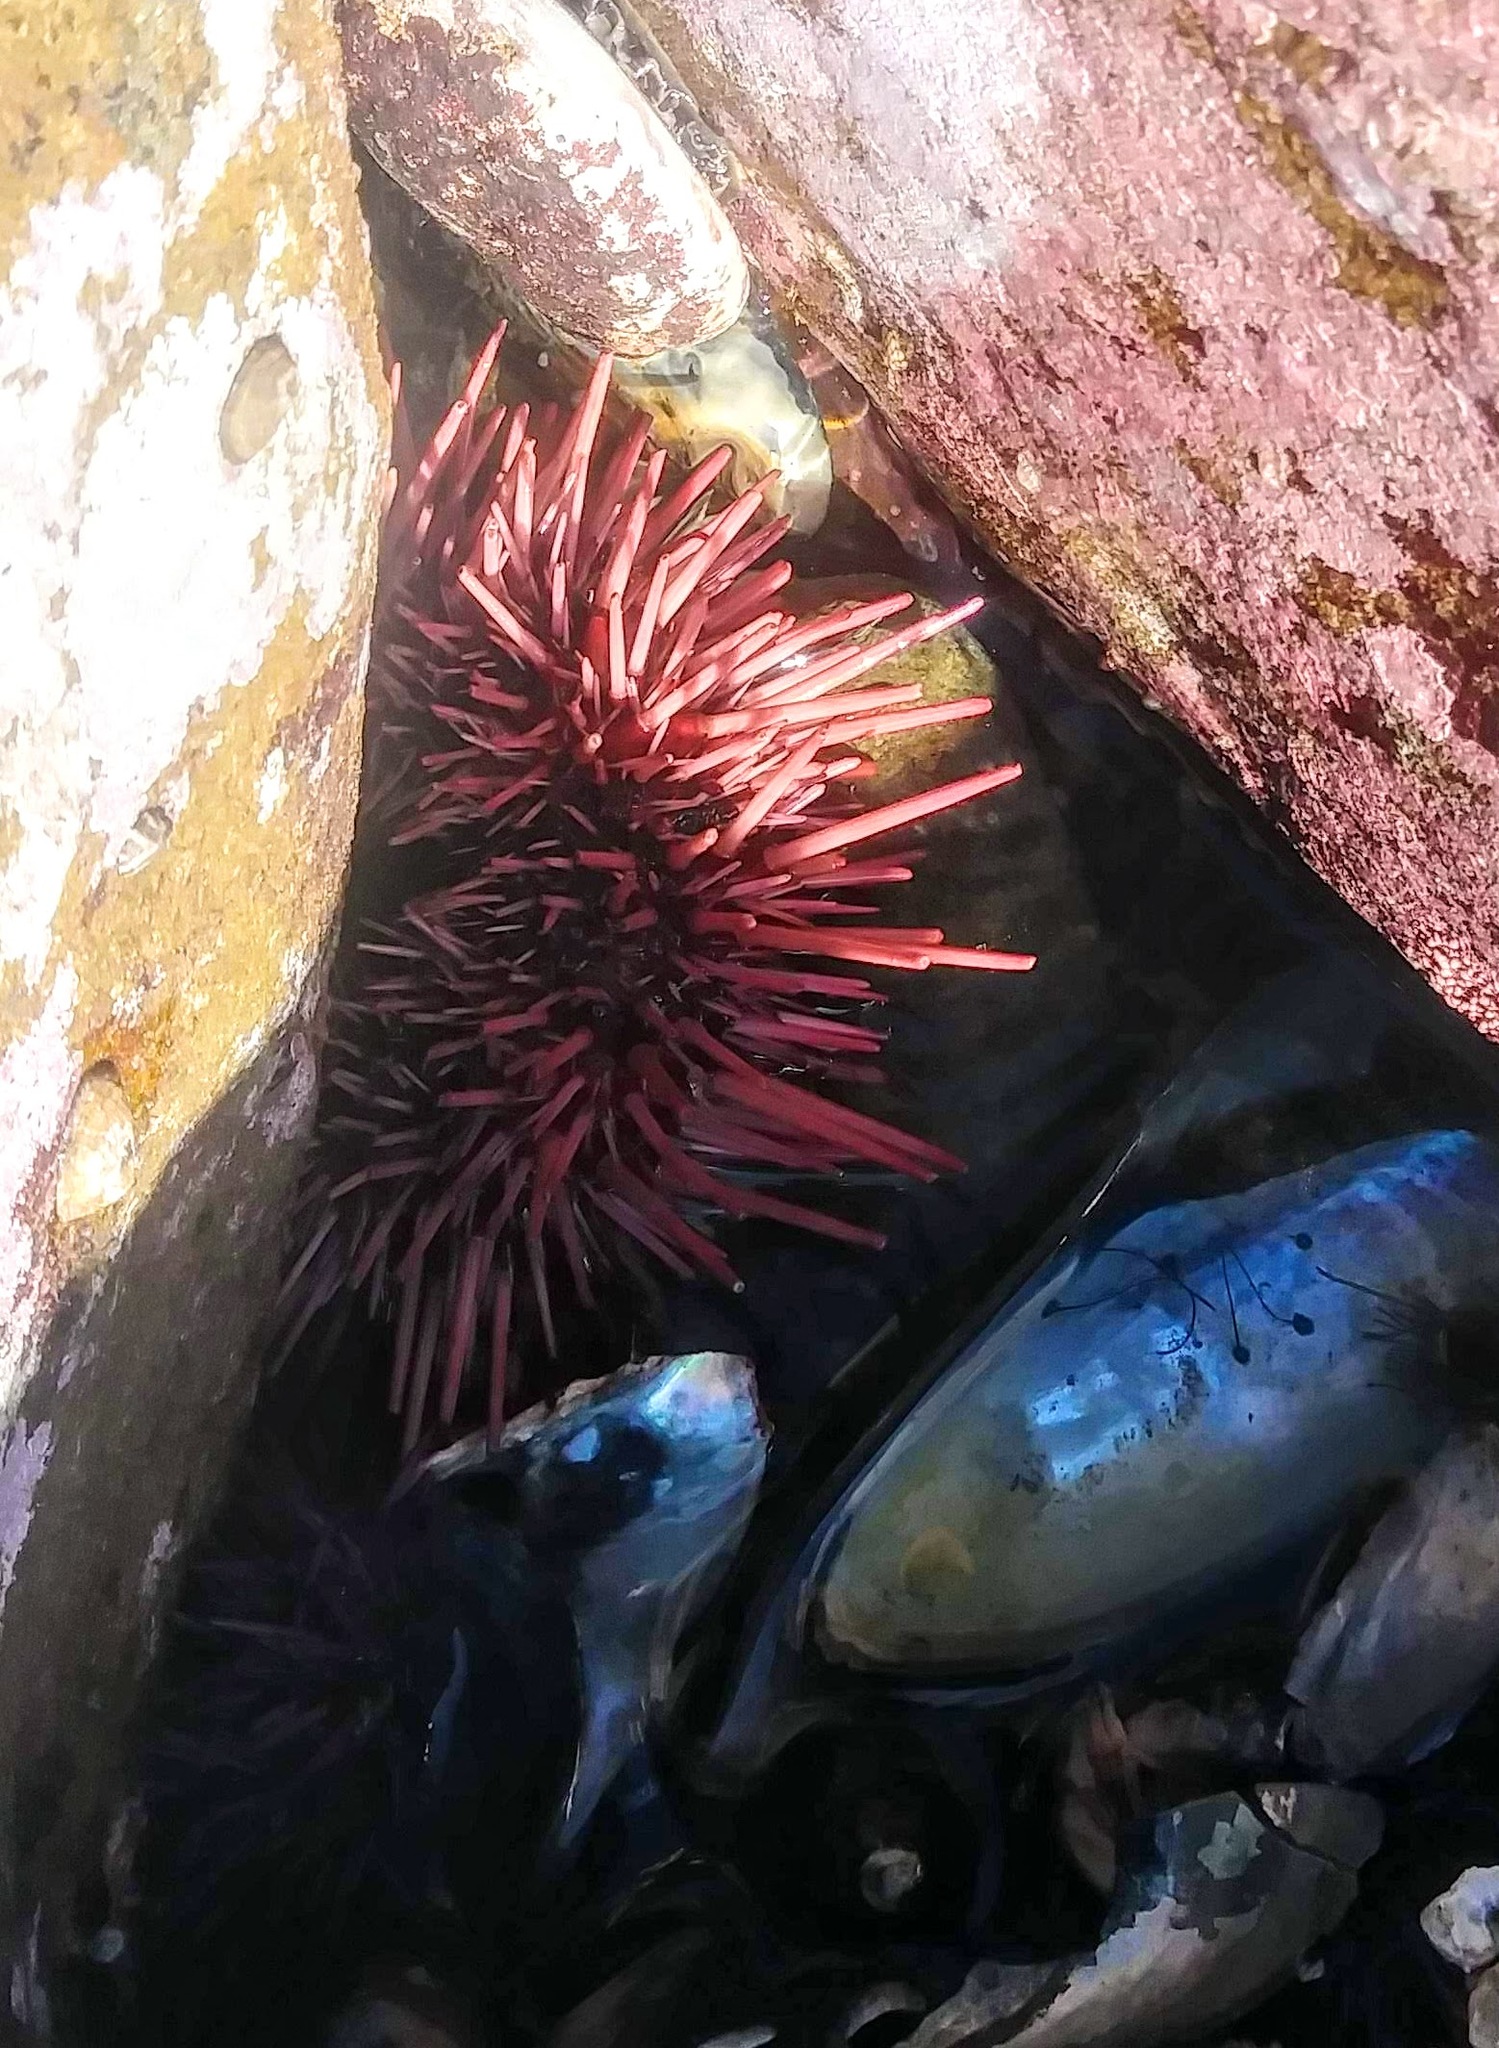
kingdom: Animalia
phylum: Echinodermata
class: Echinoidea
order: Camarodonta
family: Strongylocentrotidae
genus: Mesocentrotus
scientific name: Mesocentrotus franciscanus
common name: Red sea urchin
